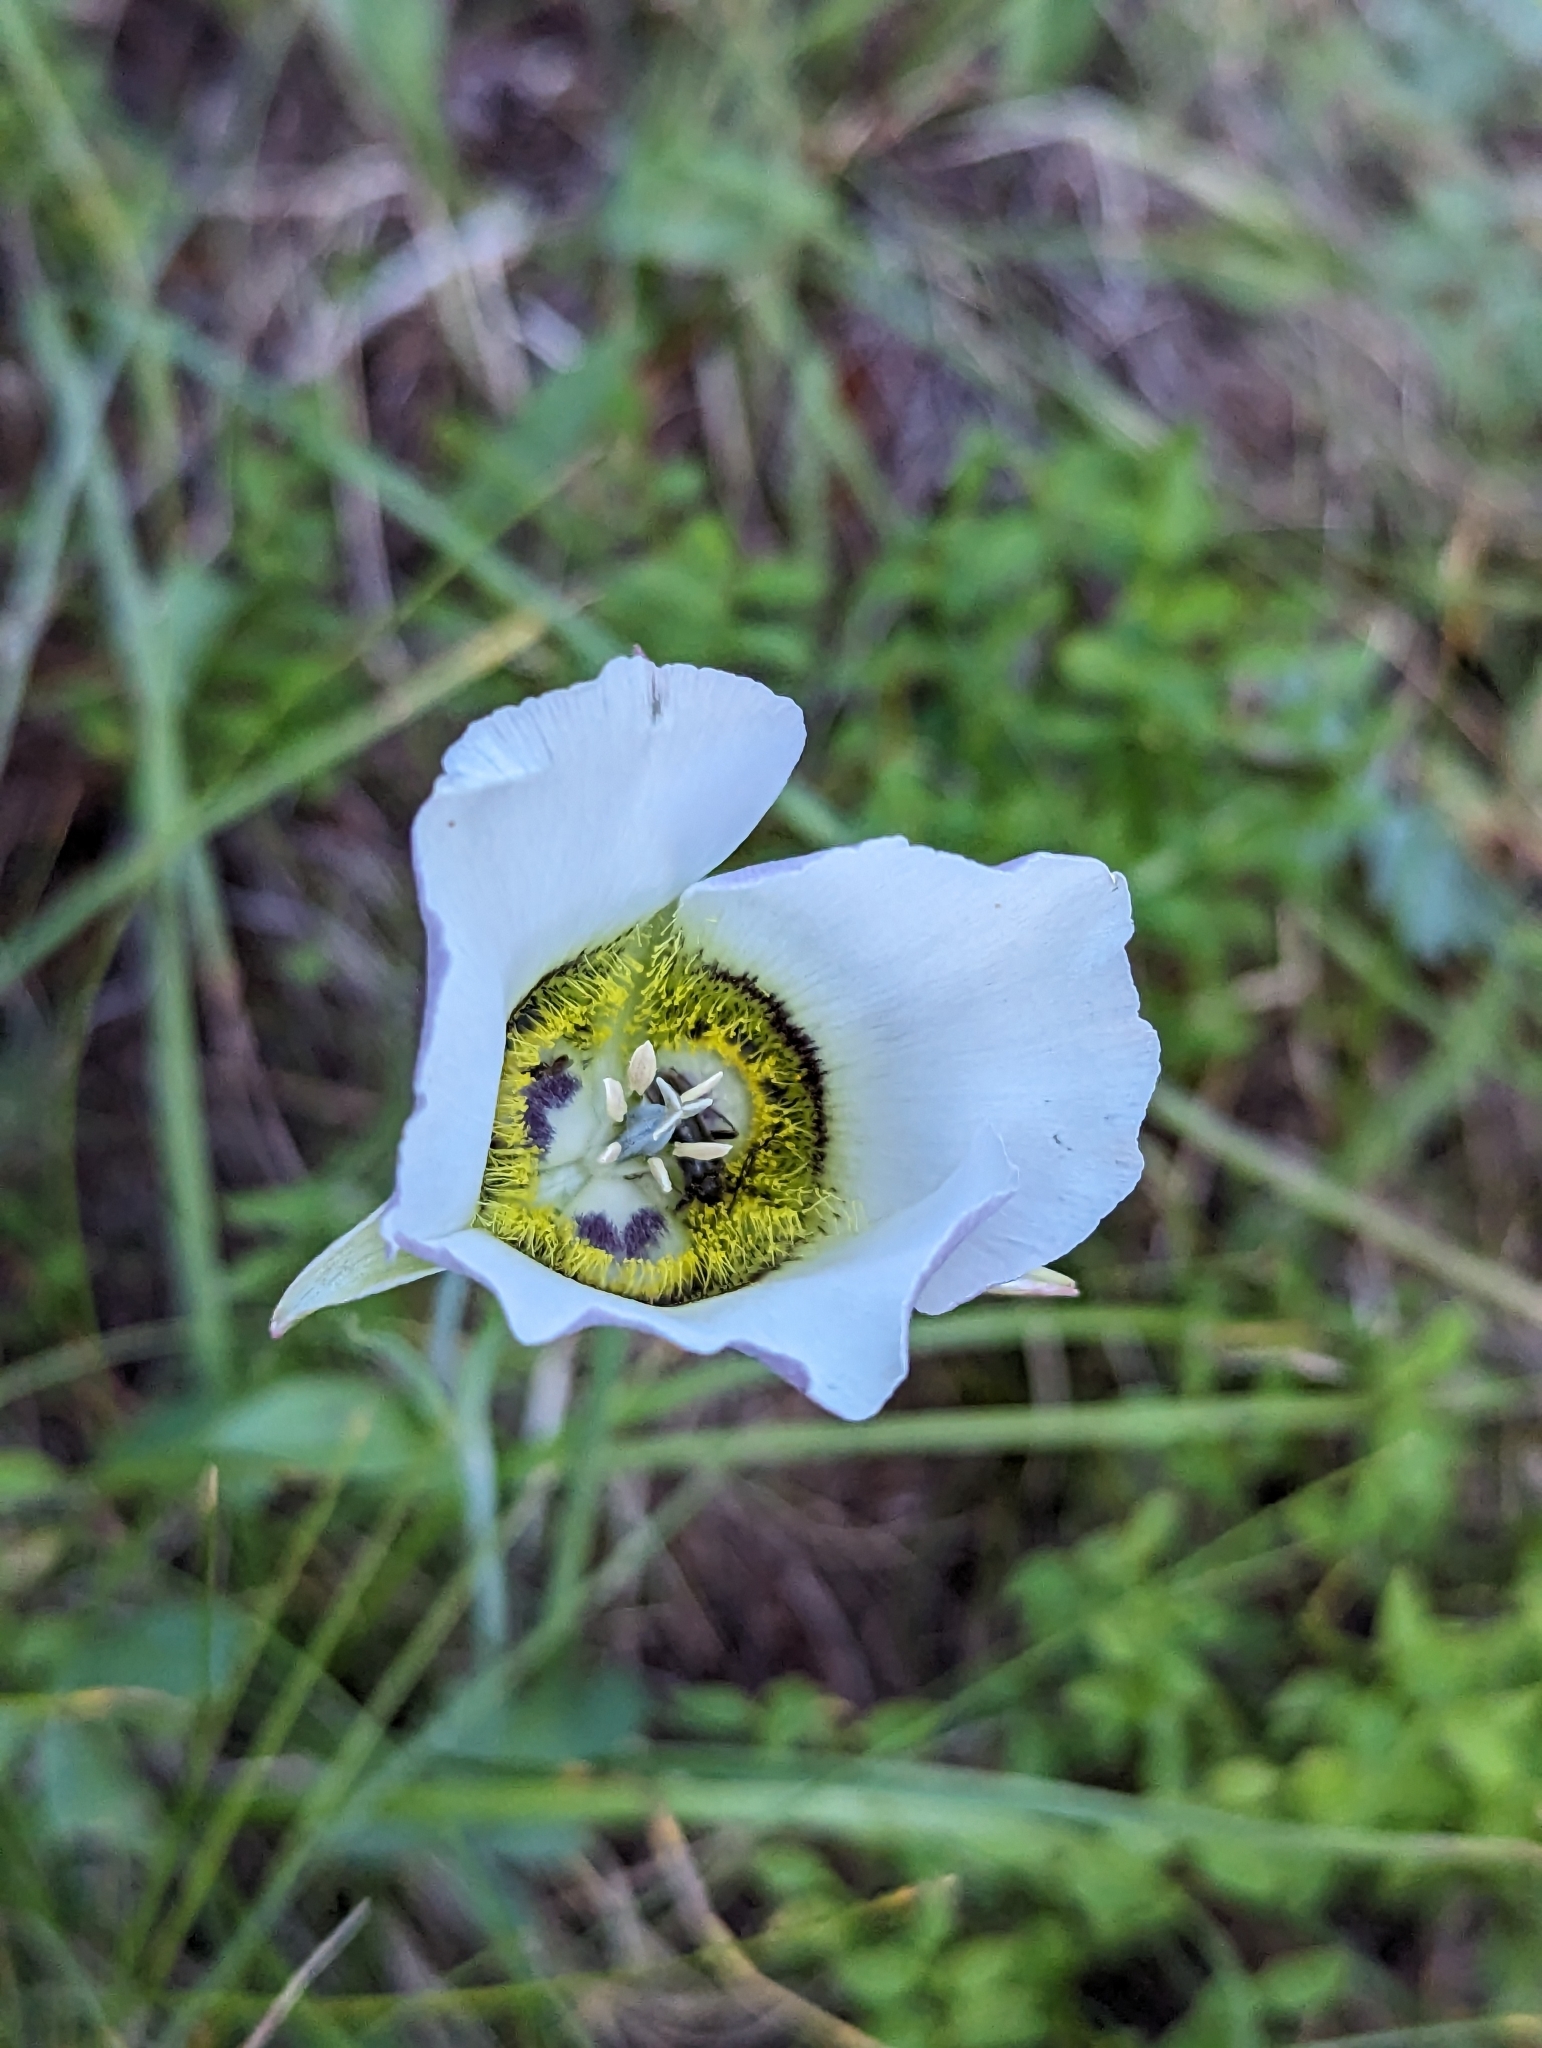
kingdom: Plantae
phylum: Tracheophyta
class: Liliopsida
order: Liliales
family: Liliaceae
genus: Calochortus
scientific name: Calochortus gunnisonii
